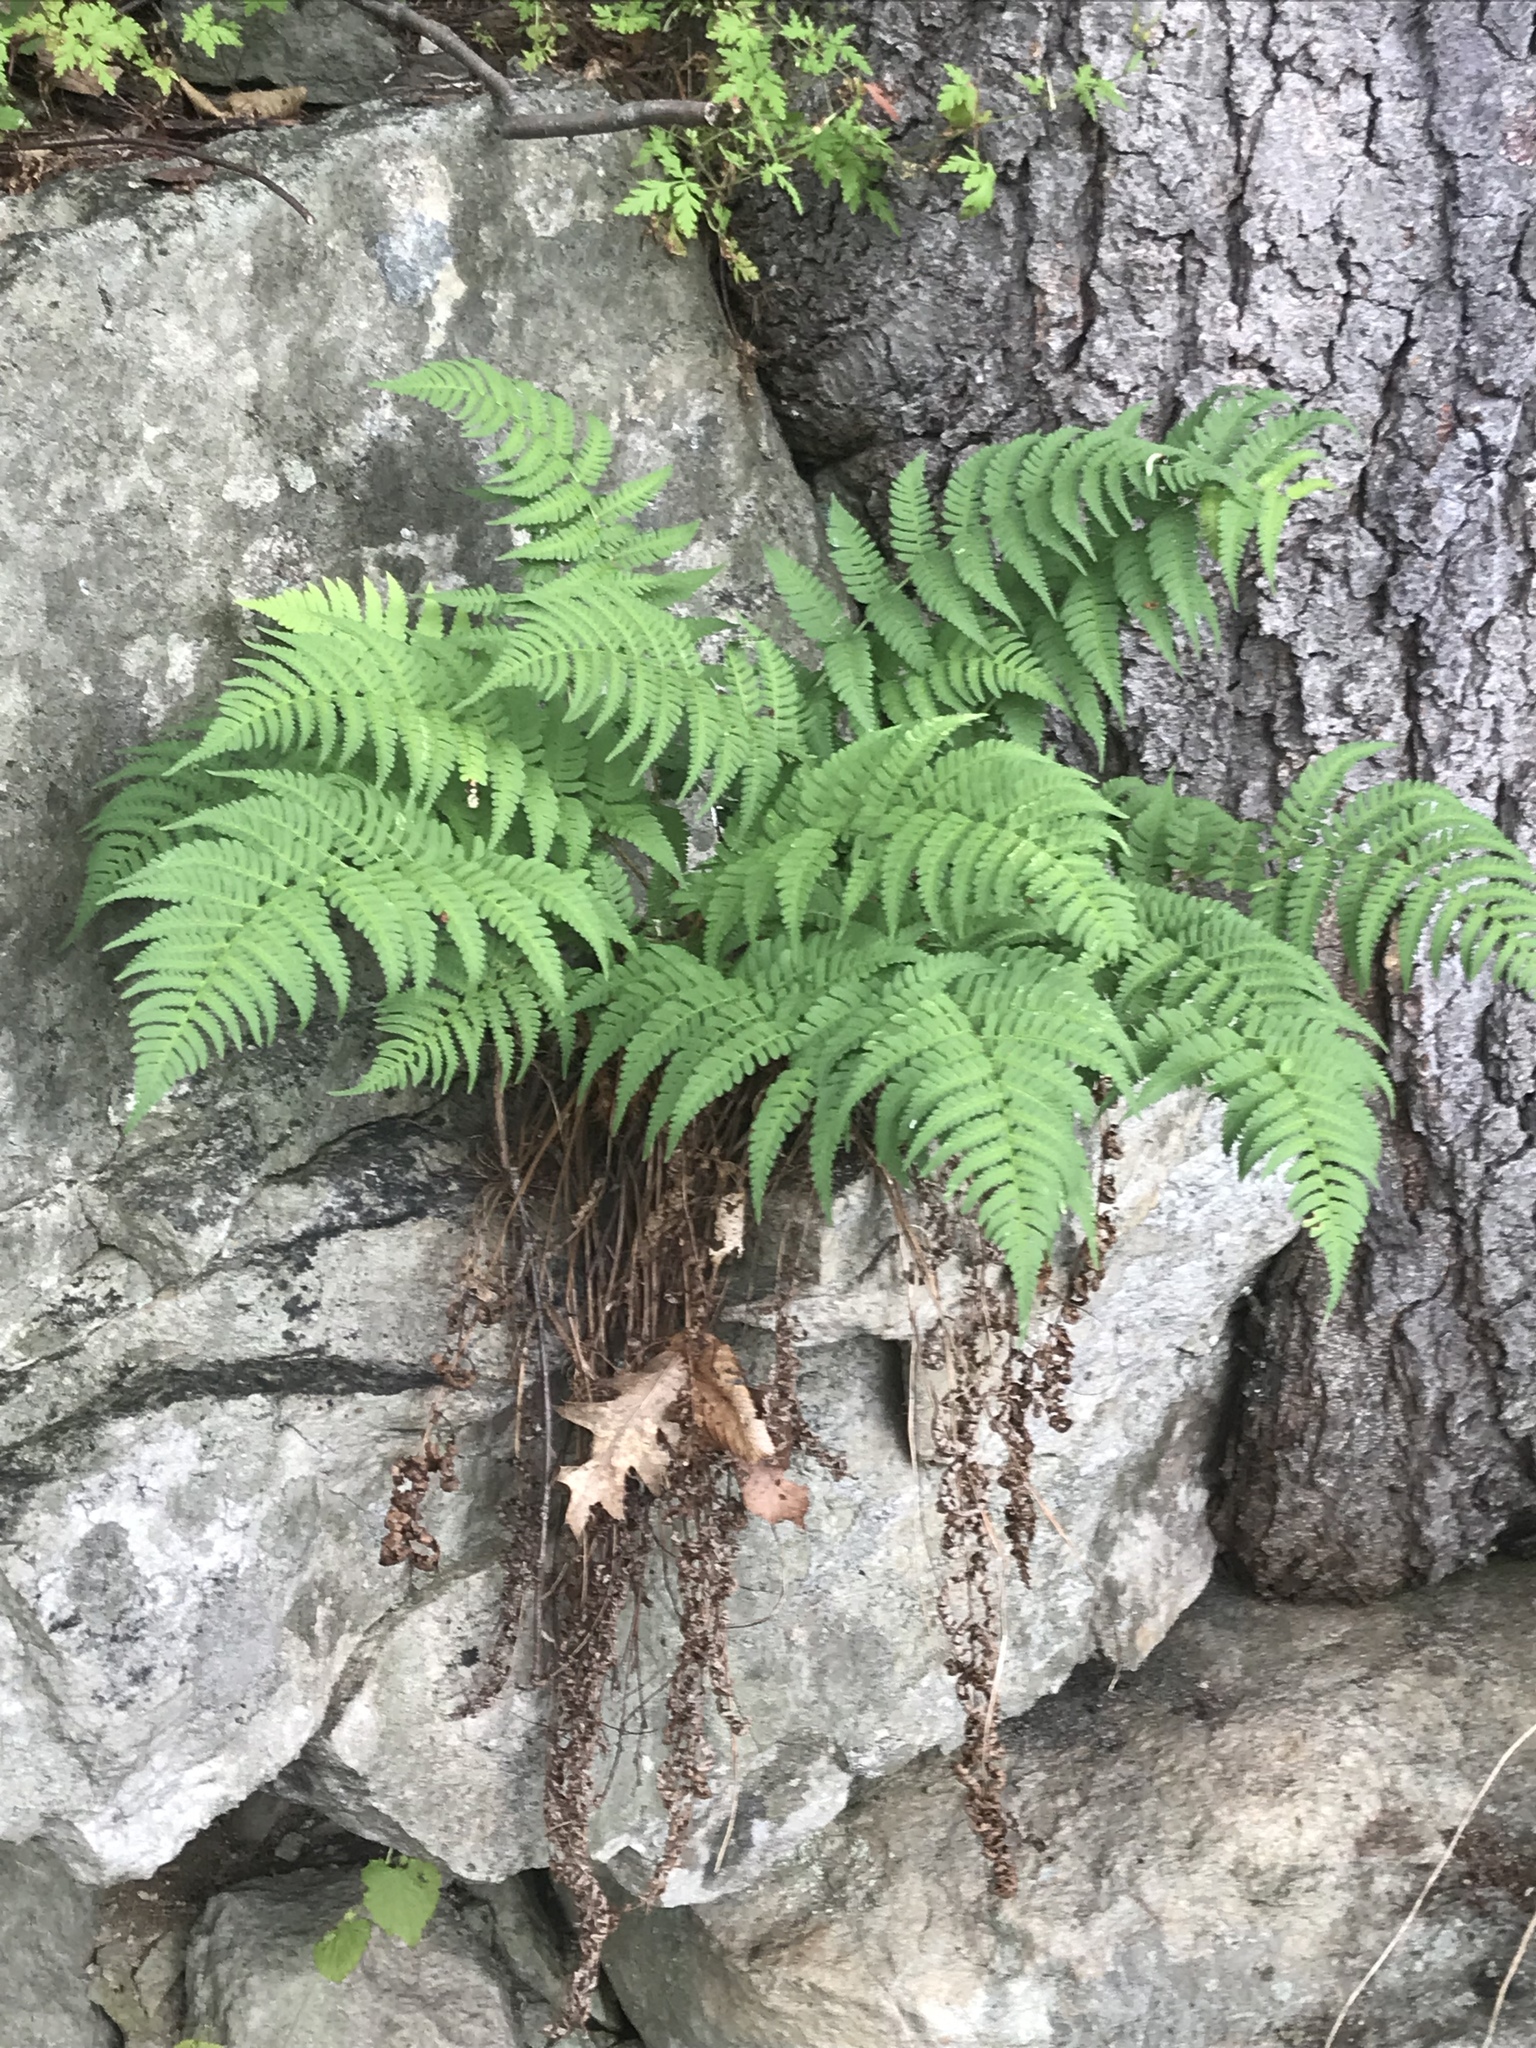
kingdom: Plantae
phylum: Tracheophyta
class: Polypodiopsida
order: Polypodiales
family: Dryopteridaceae
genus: Dryopteris
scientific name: Dryopteris marginalis
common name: Marginal wood fern
